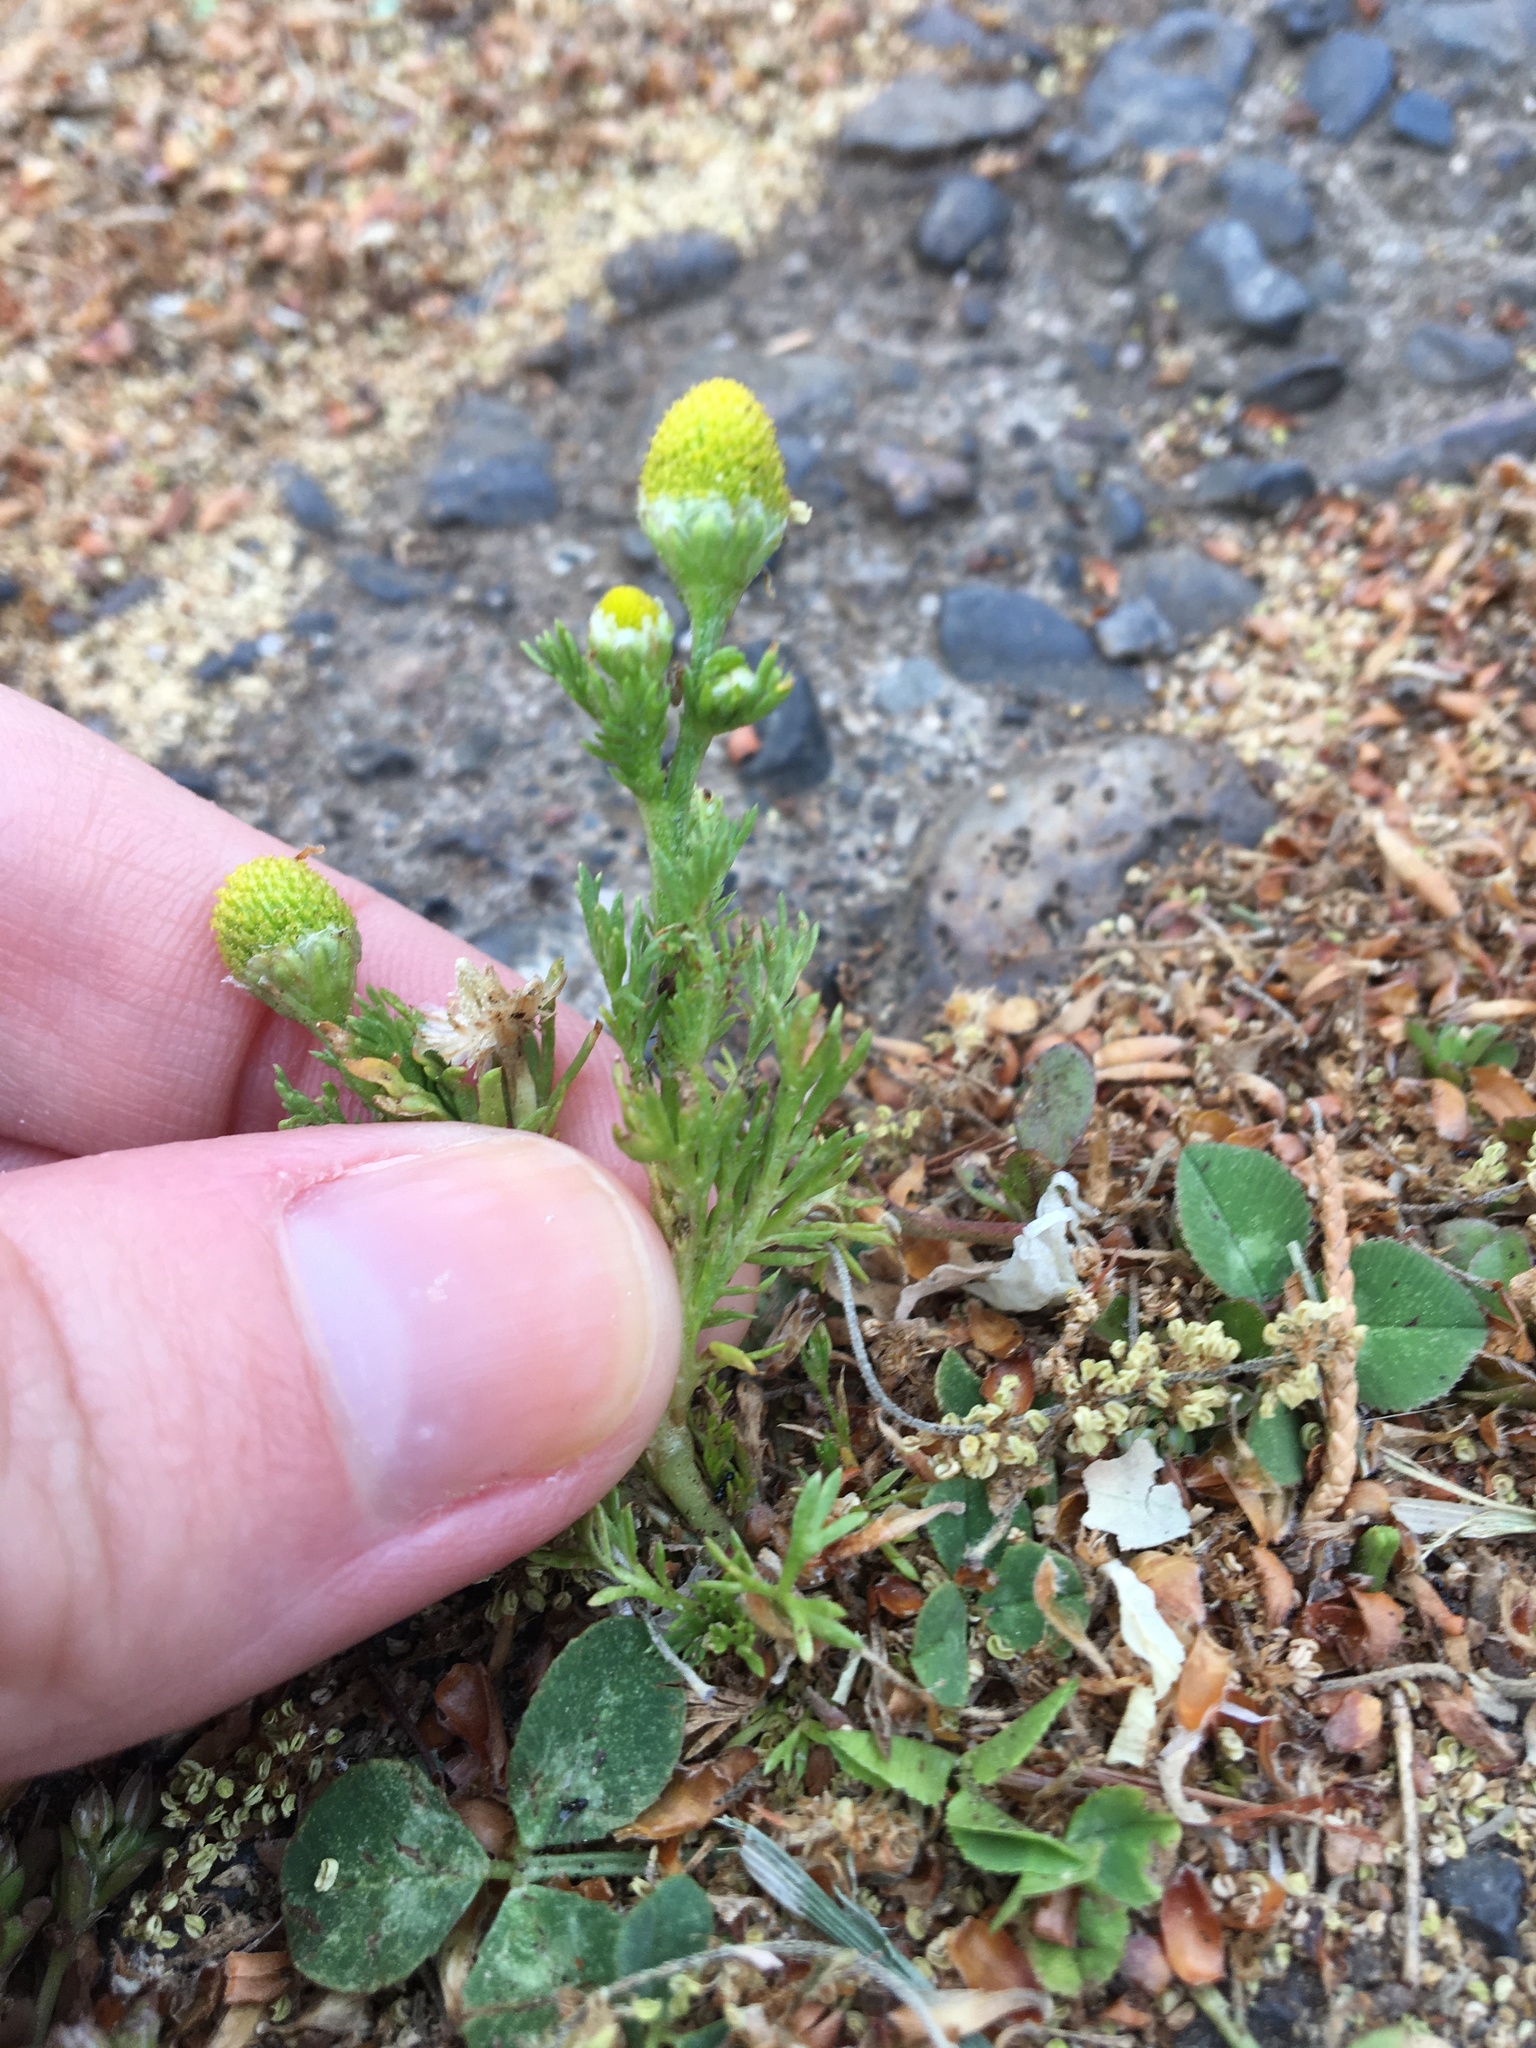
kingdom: Plantae
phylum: Tracheophyta
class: Magnoliopsida
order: Asterales
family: Asteraceae
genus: Matricaria
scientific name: Matricaria discoidea
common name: Disc mayweed
